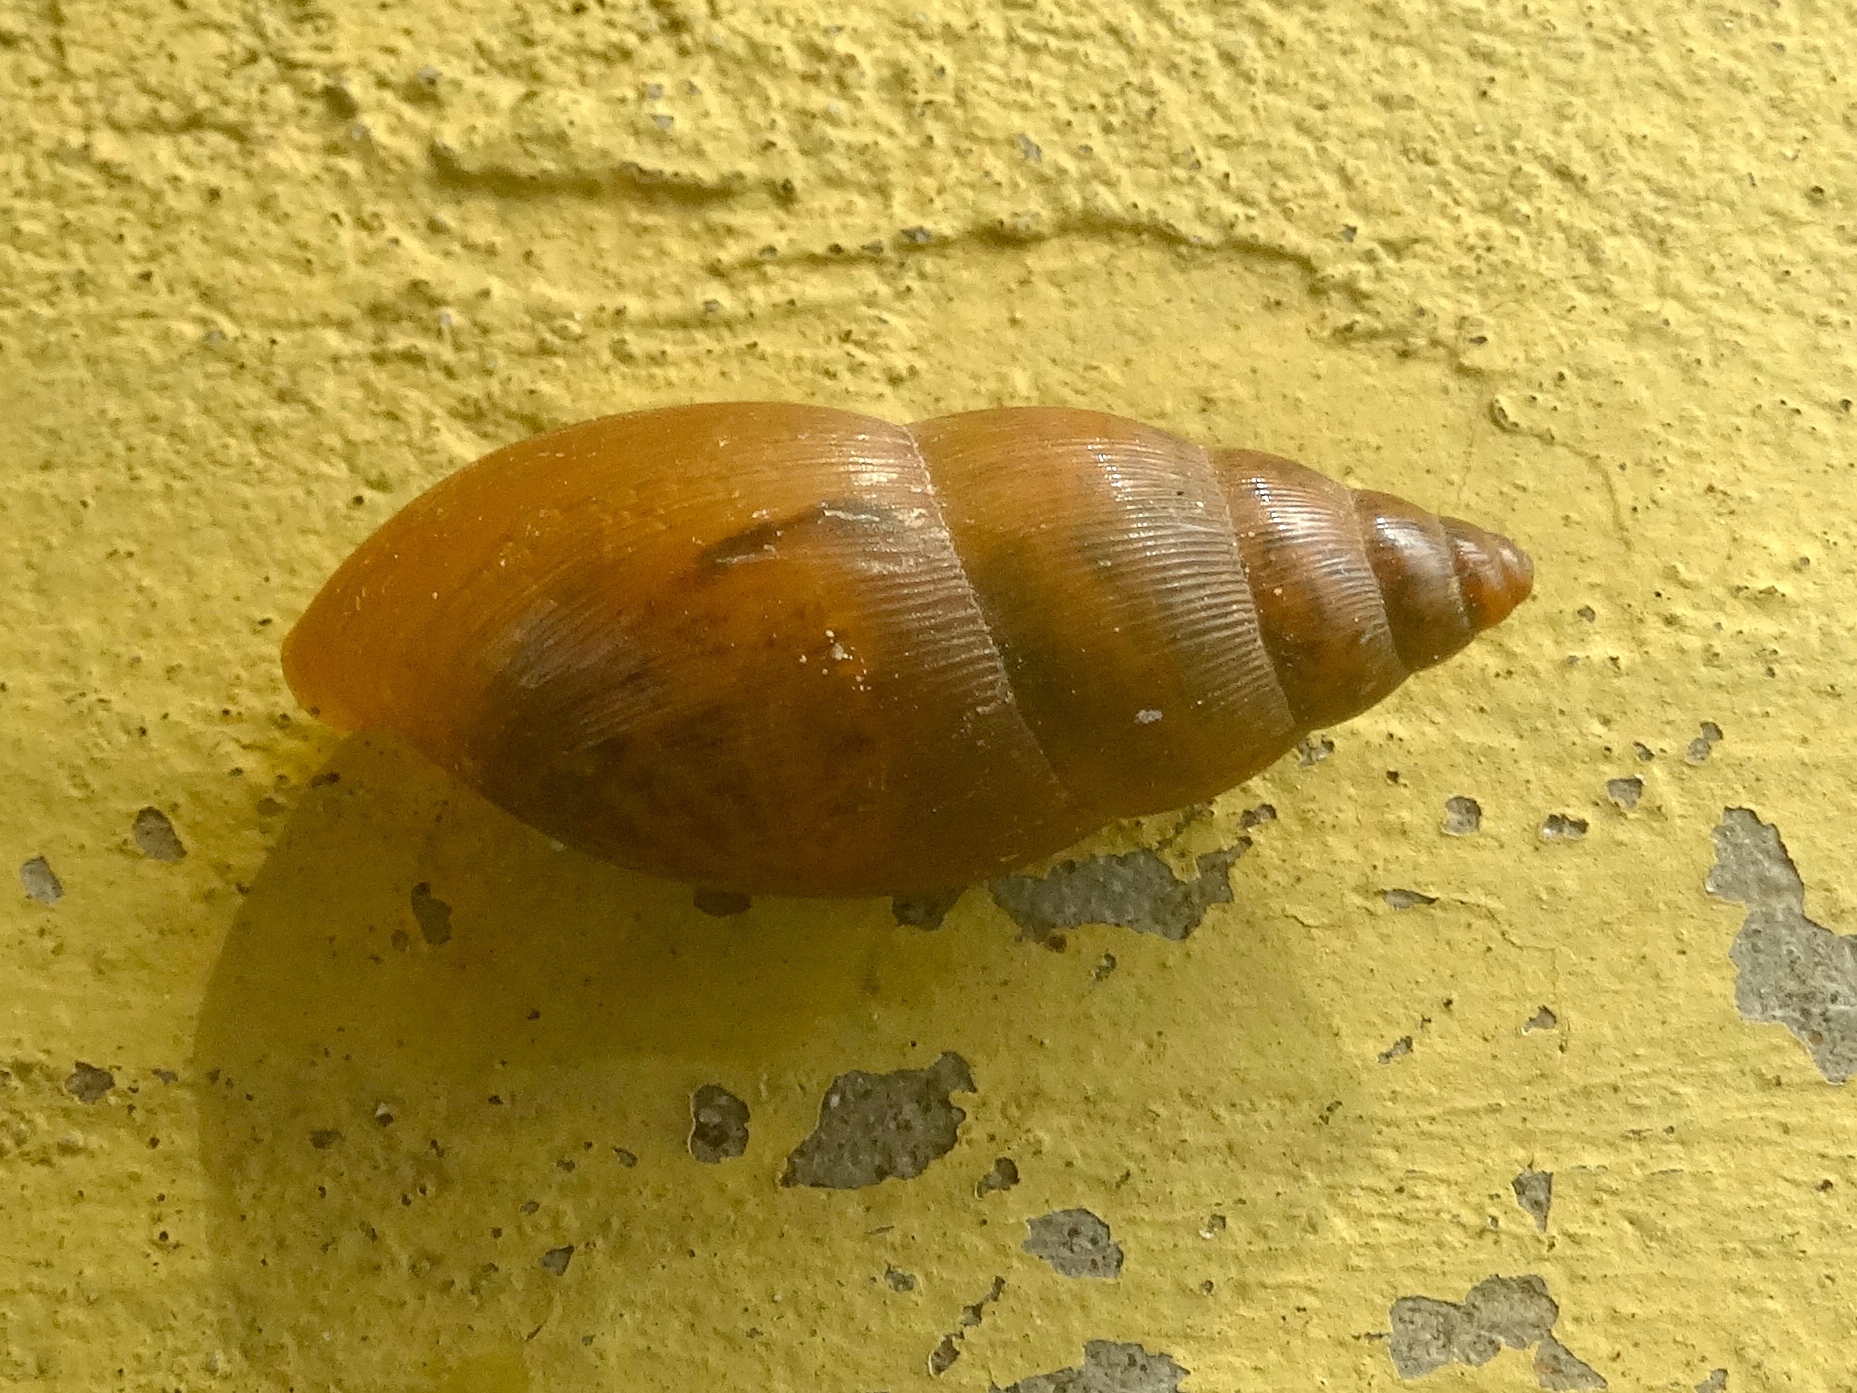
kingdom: Animalia
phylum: Mollusca
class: Gastropoda
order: Stylommatophora
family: Spiraxidae
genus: Euglandina
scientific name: Euglandina
